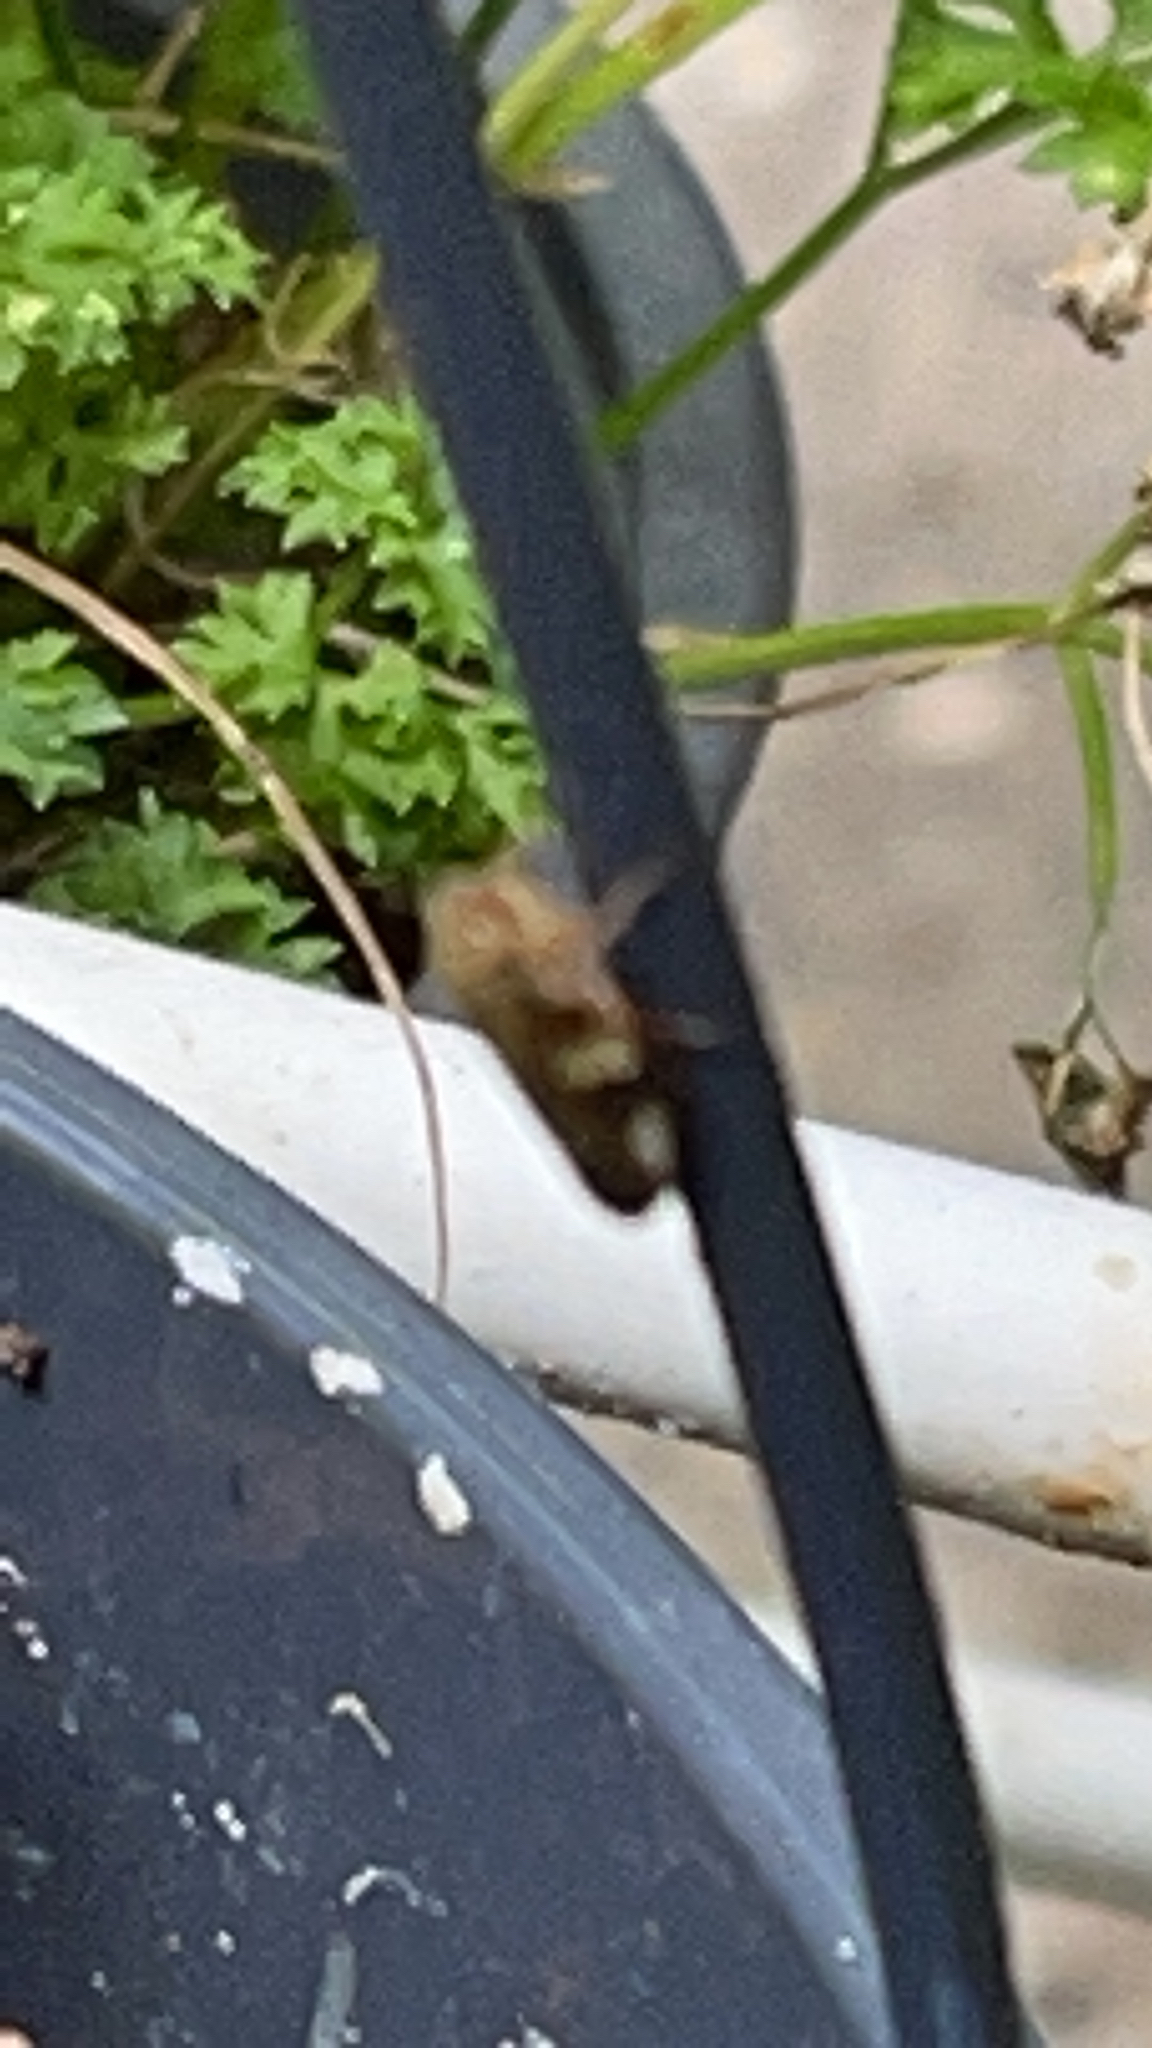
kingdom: Animalia
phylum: Arthropoda
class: Insecta
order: Hemiptera
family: Aphrophoridae
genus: Aphrophora
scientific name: Aphrophora alni
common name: European alder spittlebug
